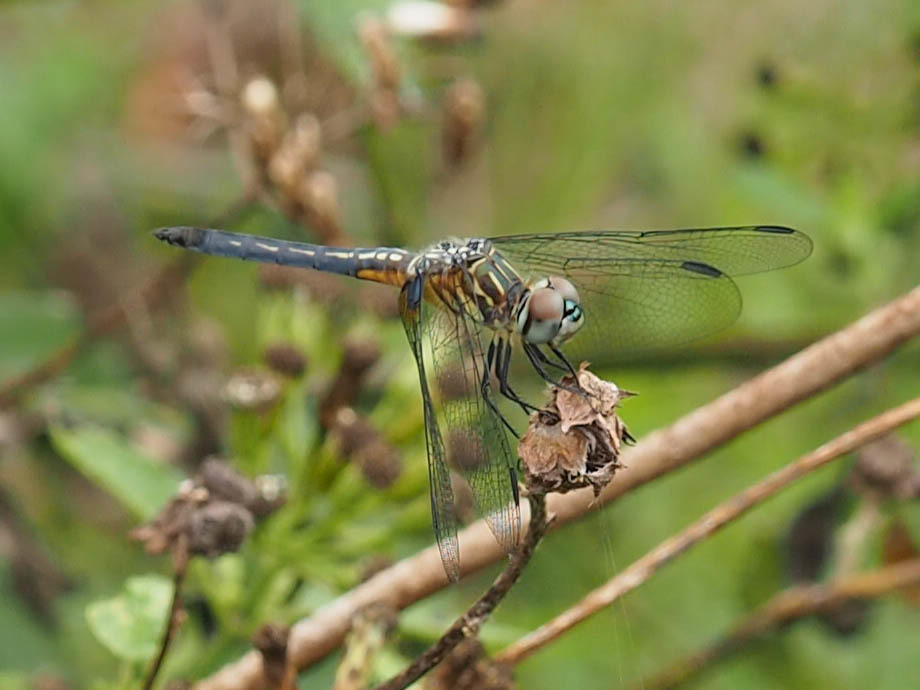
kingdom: Animalia
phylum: Arthropoda
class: Insecta
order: Odonata
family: Libellulidae
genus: Pachydiplax
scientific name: Pachydiplax longipennis
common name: Blue dasher
